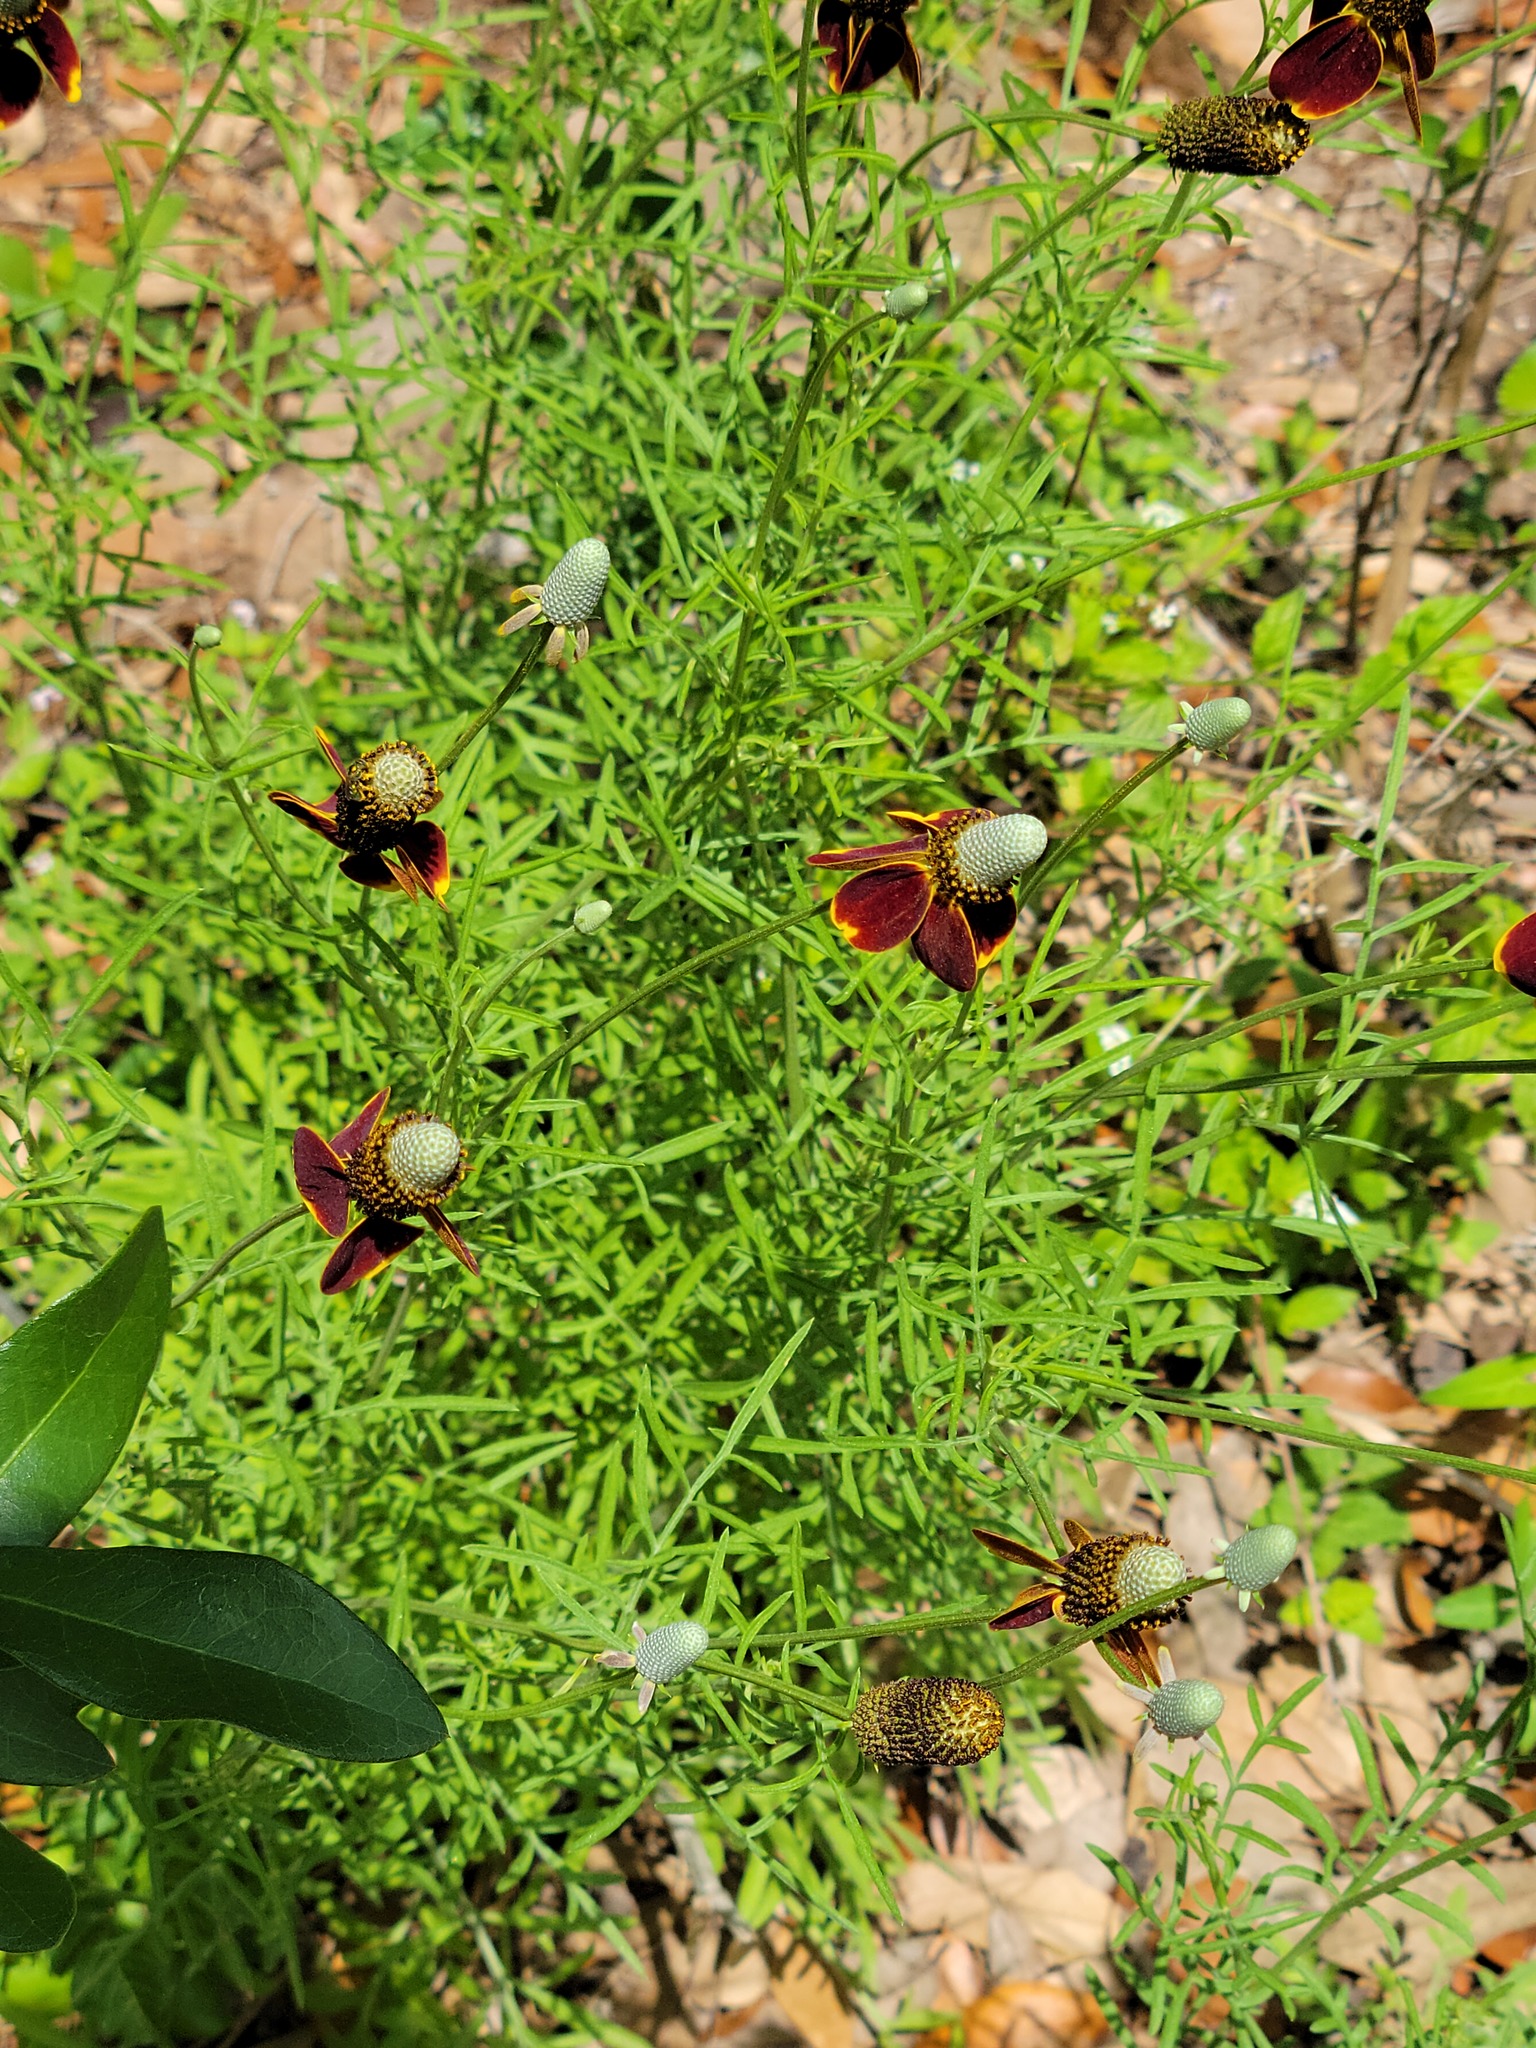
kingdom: Plantae
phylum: Tracheophyta
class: Magnoliopsida
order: Asterales
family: Asteraceae
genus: Ratibida
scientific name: Ratibida columnifera
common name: Prairie coneflower
